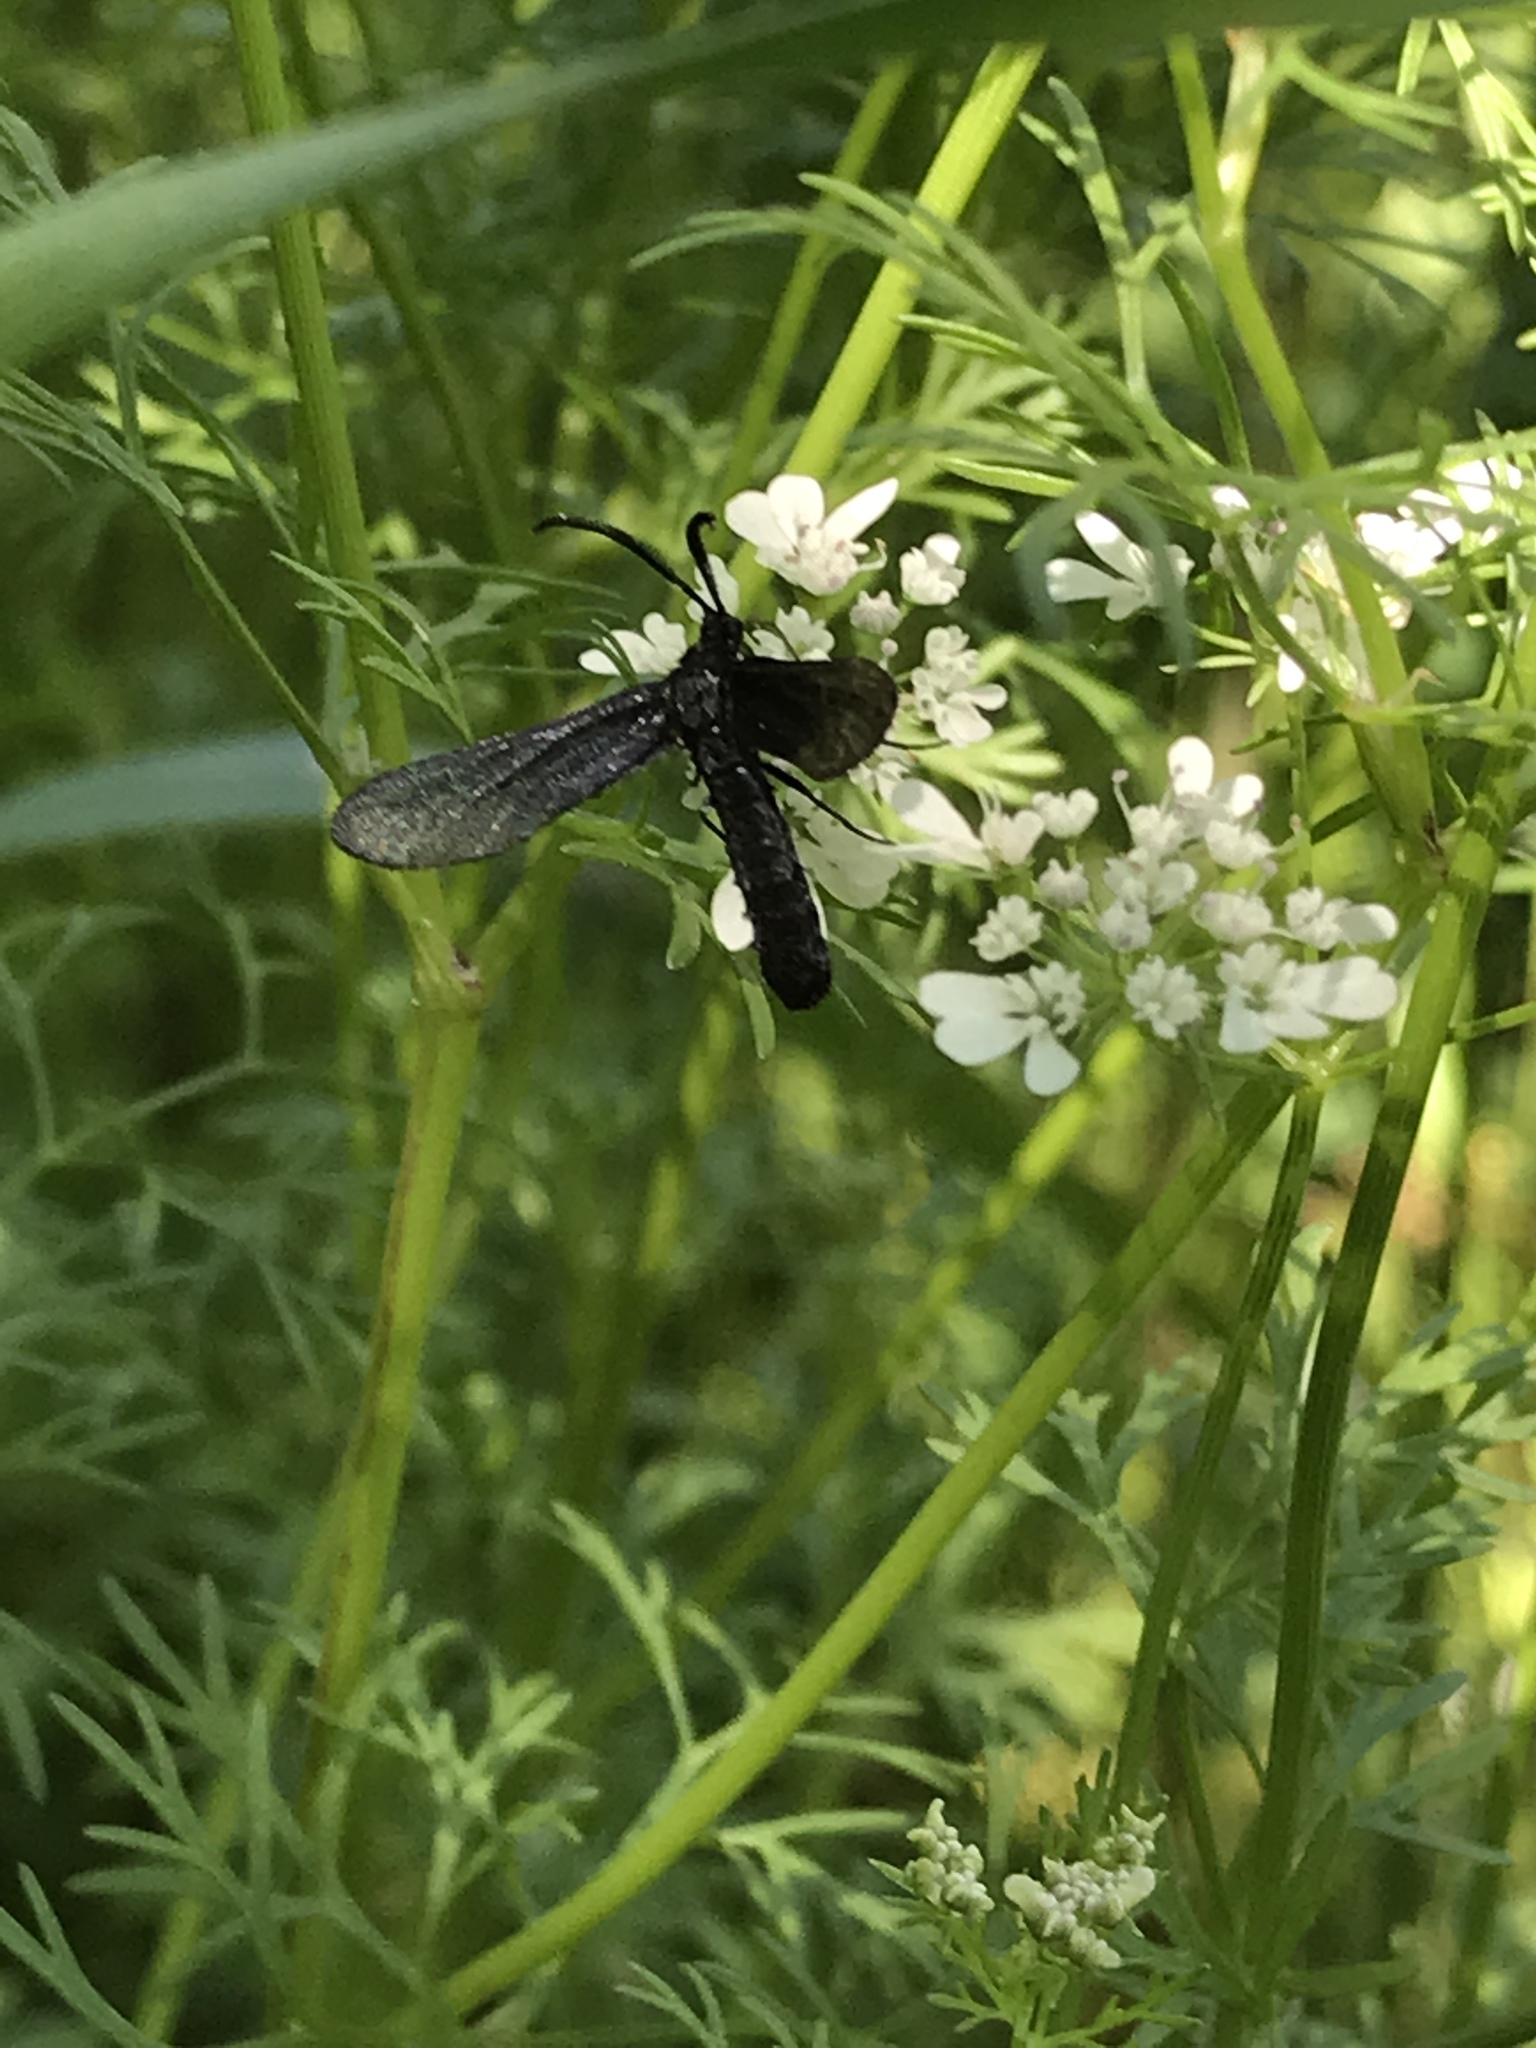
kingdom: Animalia
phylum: Arthropoda
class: Insecta
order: Lepidoptera
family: Zygaenidae
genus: Harrisina
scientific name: Harrisina coracina
